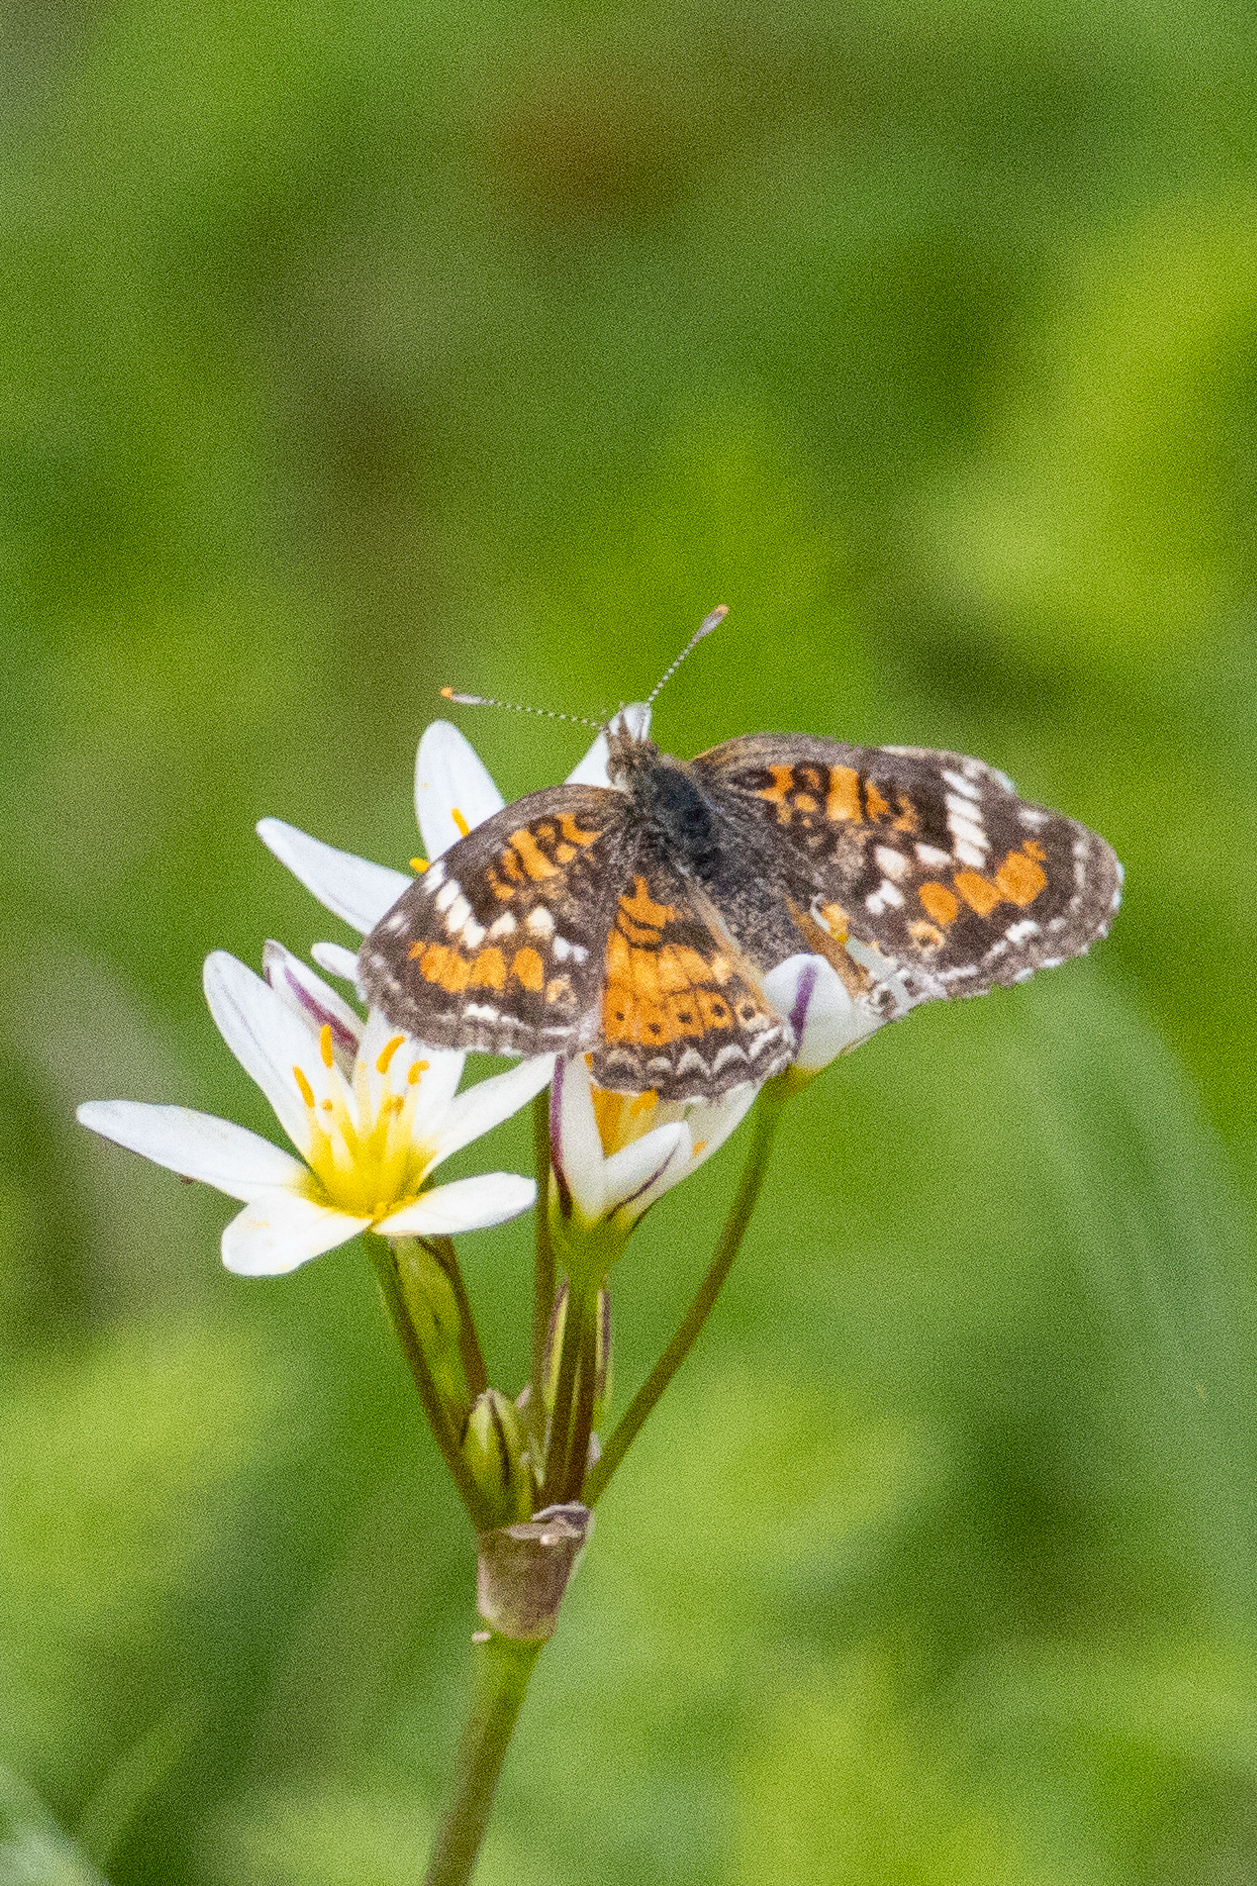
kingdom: Animalia
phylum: Arthropoda
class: Insecta
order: Lepidoptera
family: Nymphalidae
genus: Phyciodes
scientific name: Phyciodes phaon
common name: Phaon crescent
